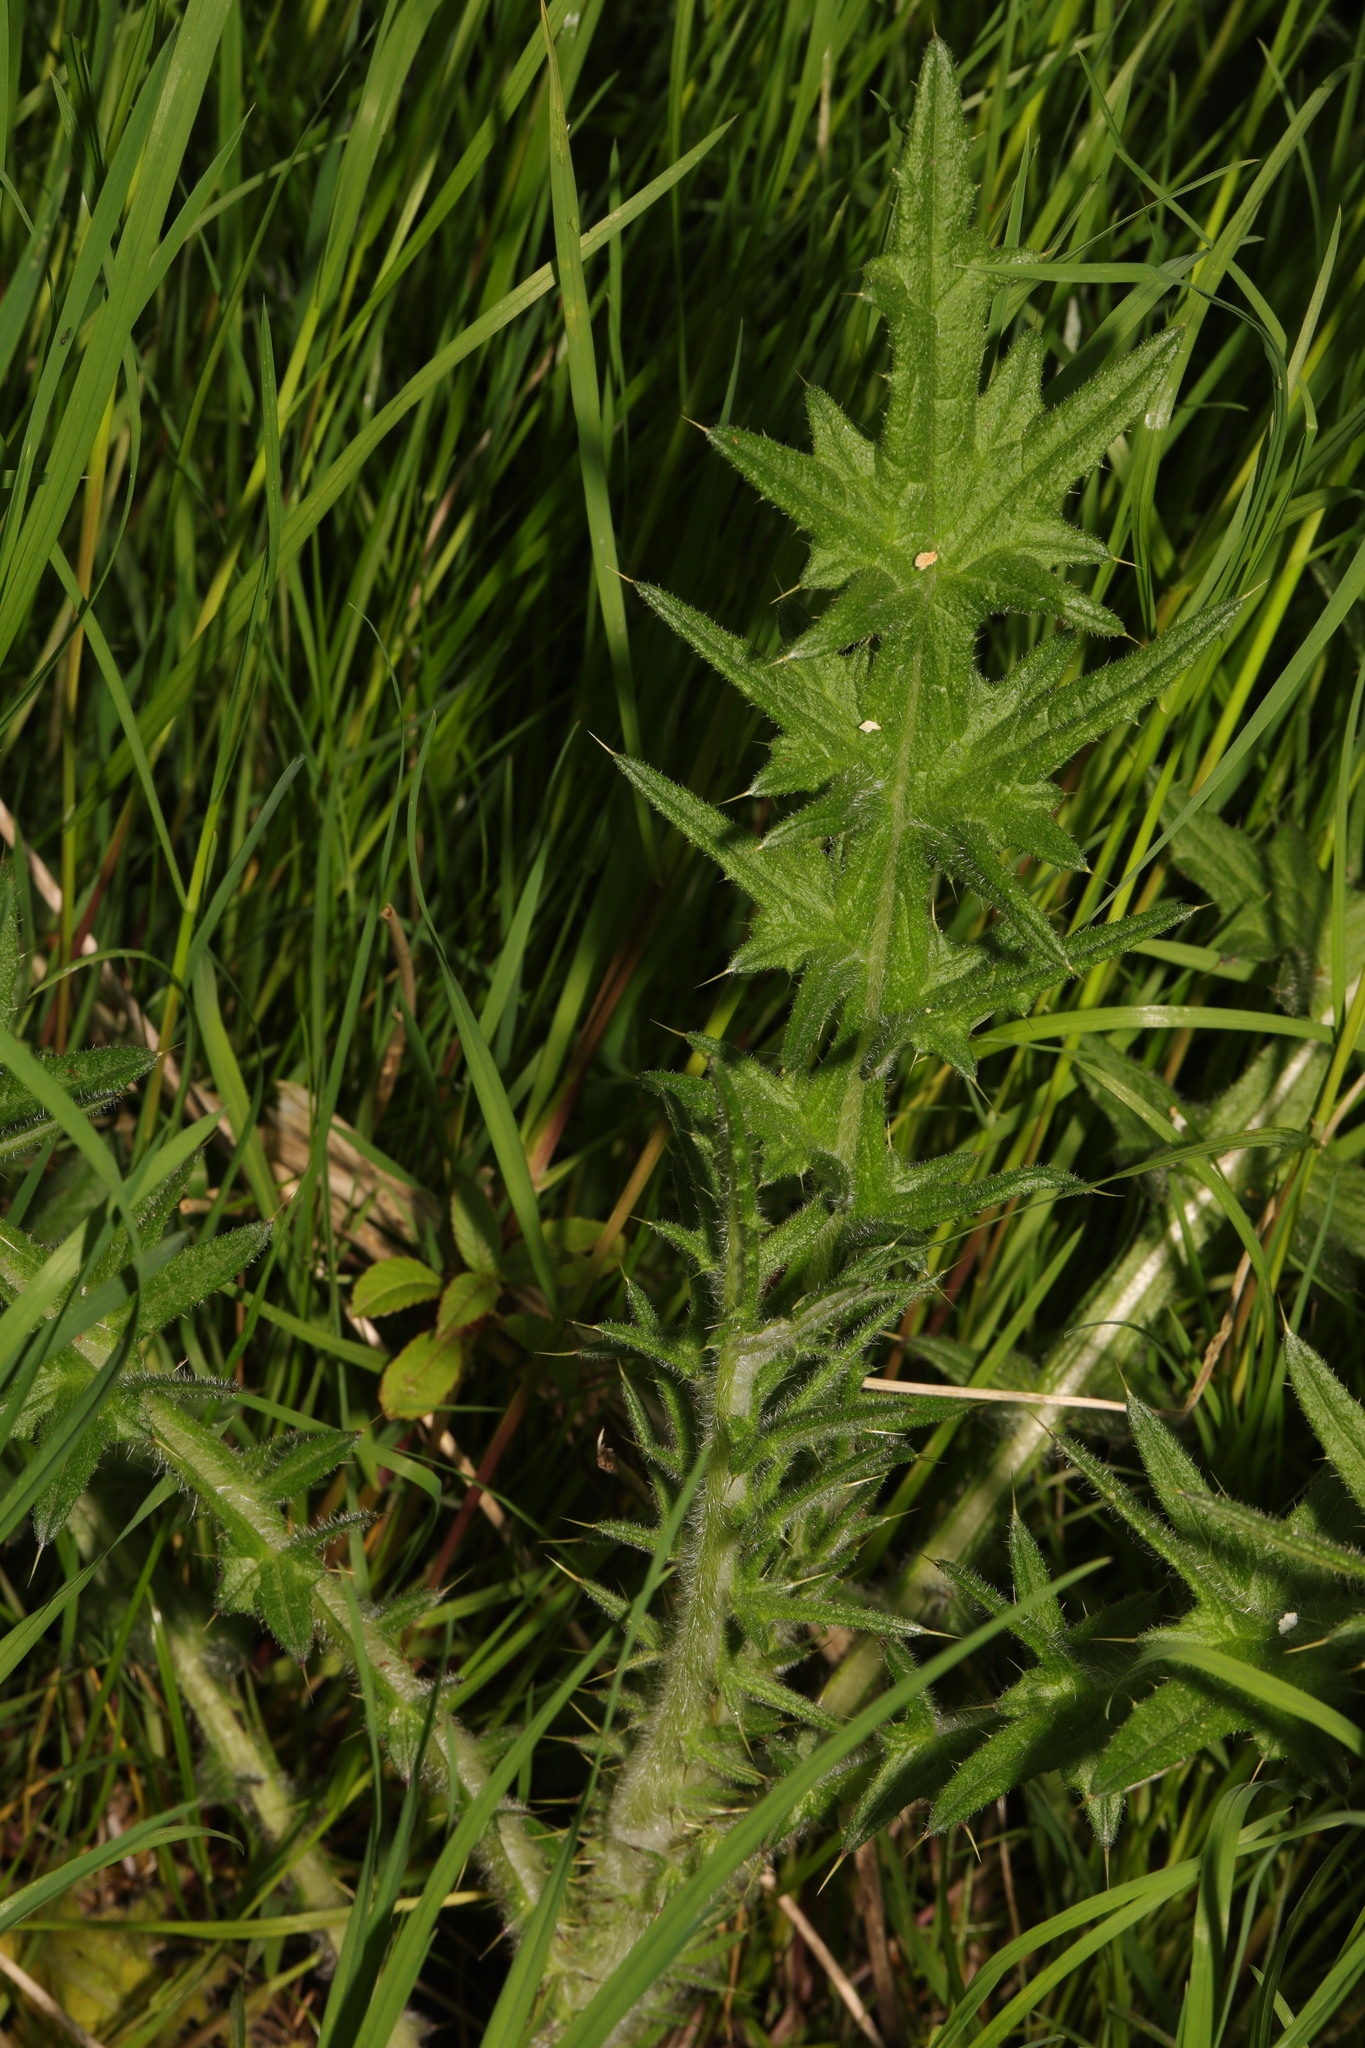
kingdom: Plantae
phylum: Tracheophyta
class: Magnoliopsida
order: Asterales
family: Asteraceae
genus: Cirsium
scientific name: Cirsium vulgare
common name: Bull thistle
